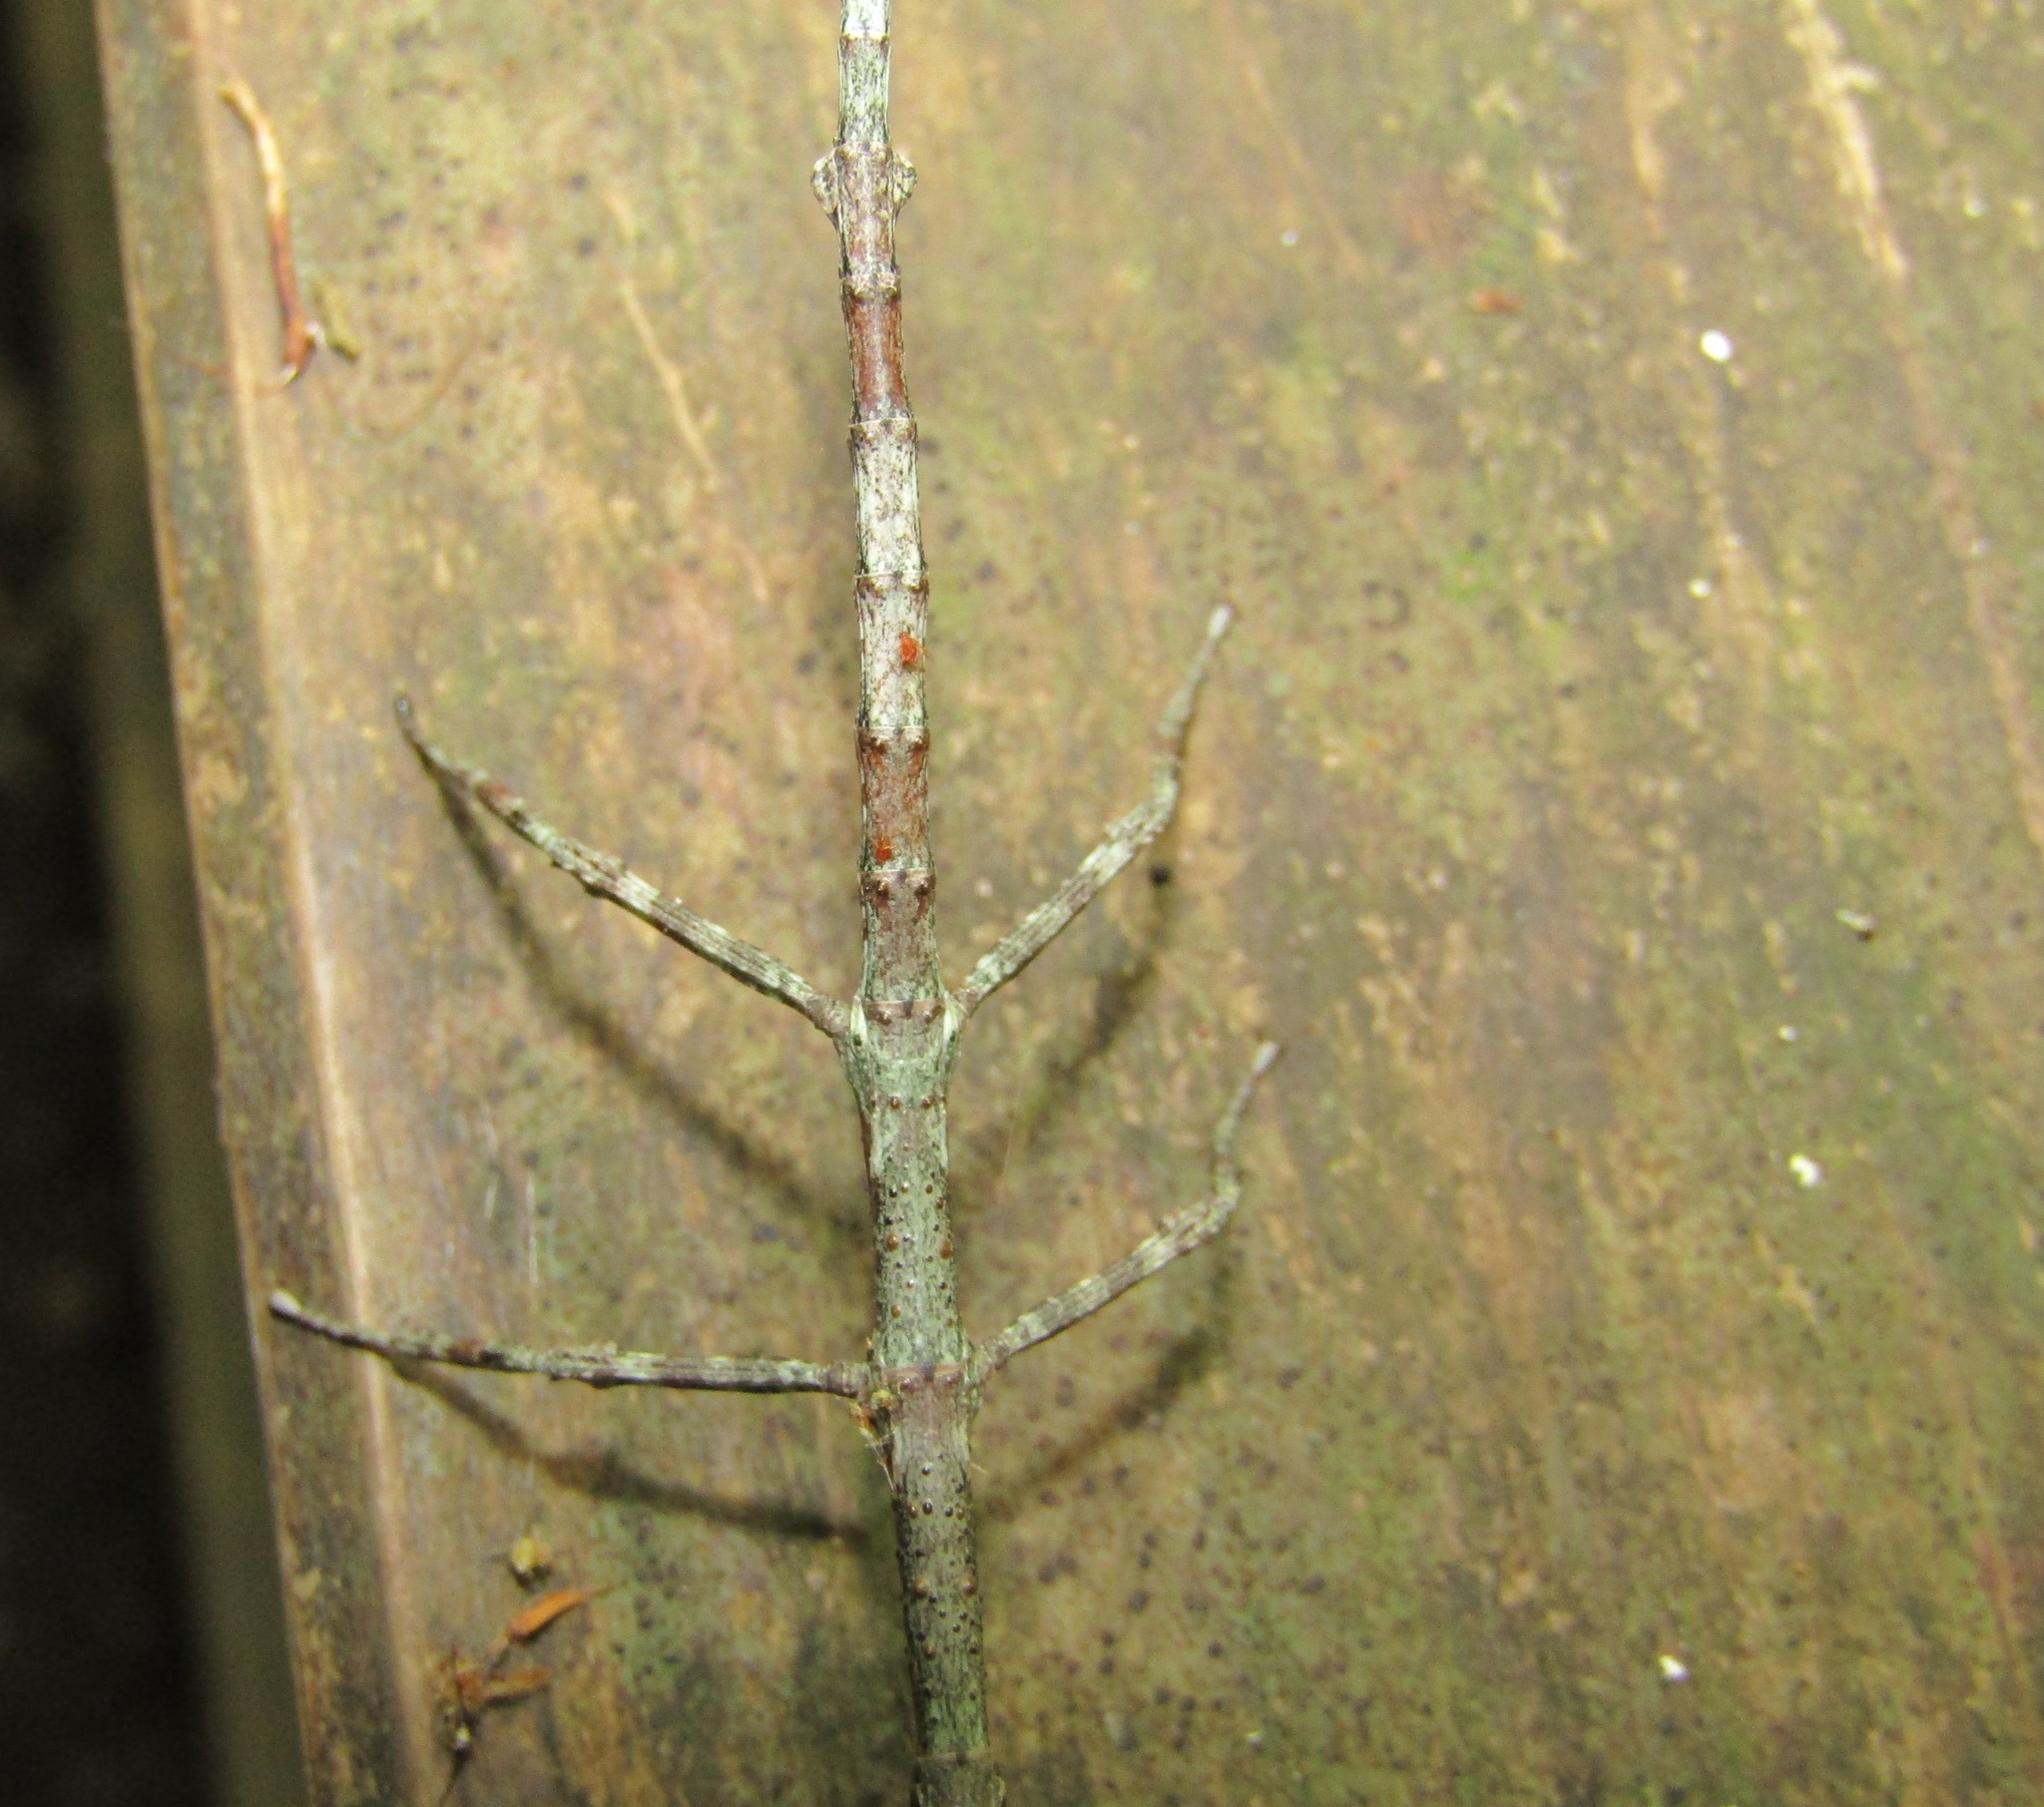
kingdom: Animalia
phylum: Arthropoda
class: Insecta
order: Phasmida
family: Phasmatidae
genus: Argosarchus
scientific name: Argosarchus horridus
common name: Bristly stick insect
